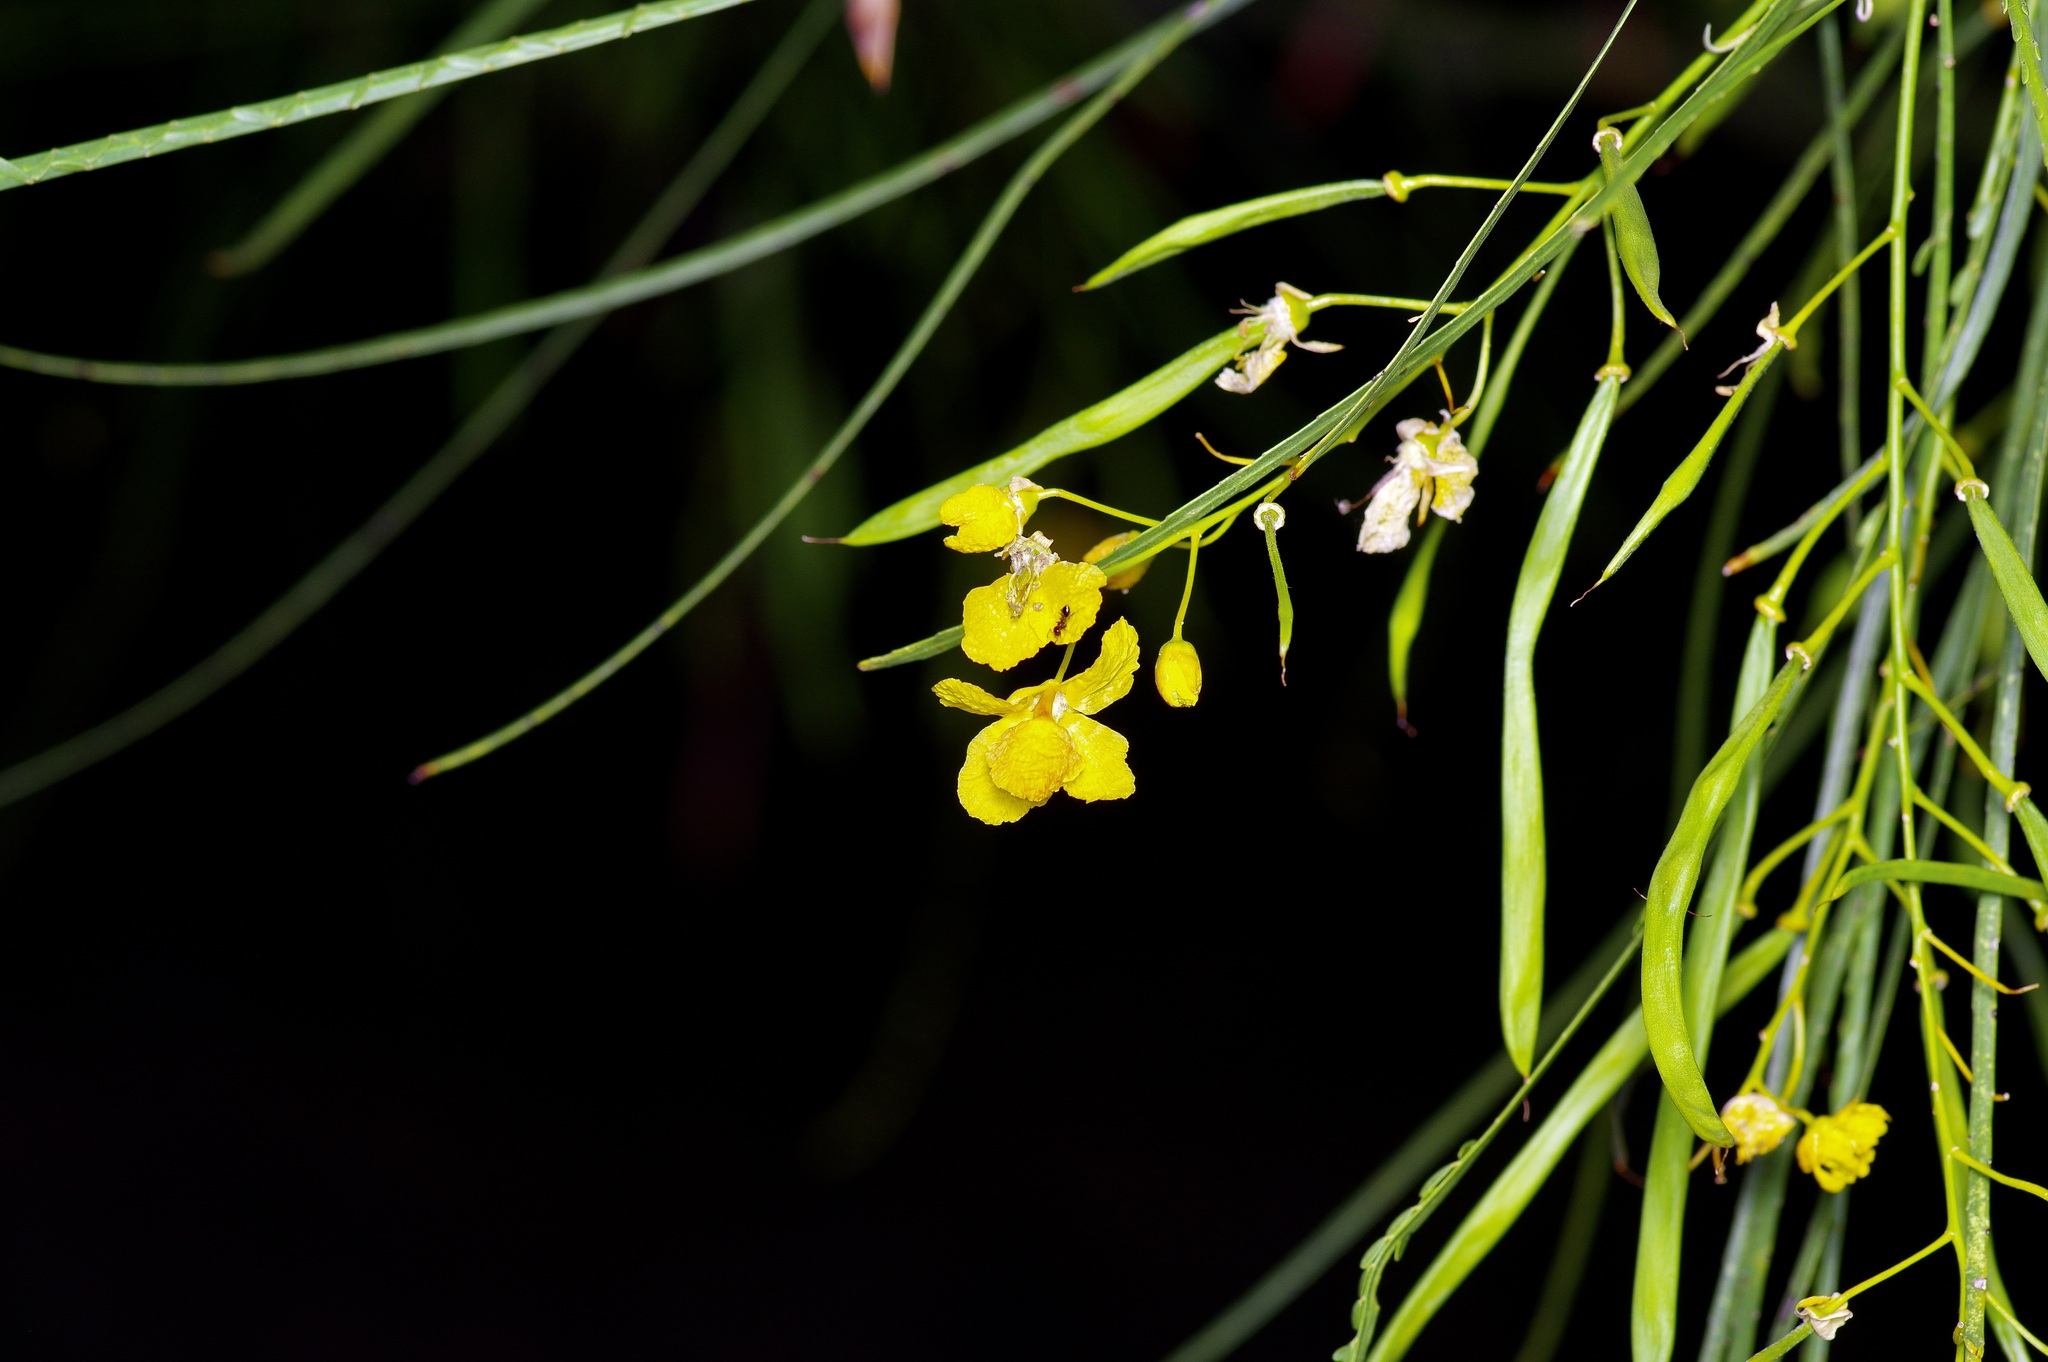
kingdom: Plantae
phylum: Tracheophyta
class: Magnoliopsida
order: Fabales
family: Fabaceae
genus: Parkinsonia
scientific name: Parkinsonia aculeata
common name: Jerusalem thorn
